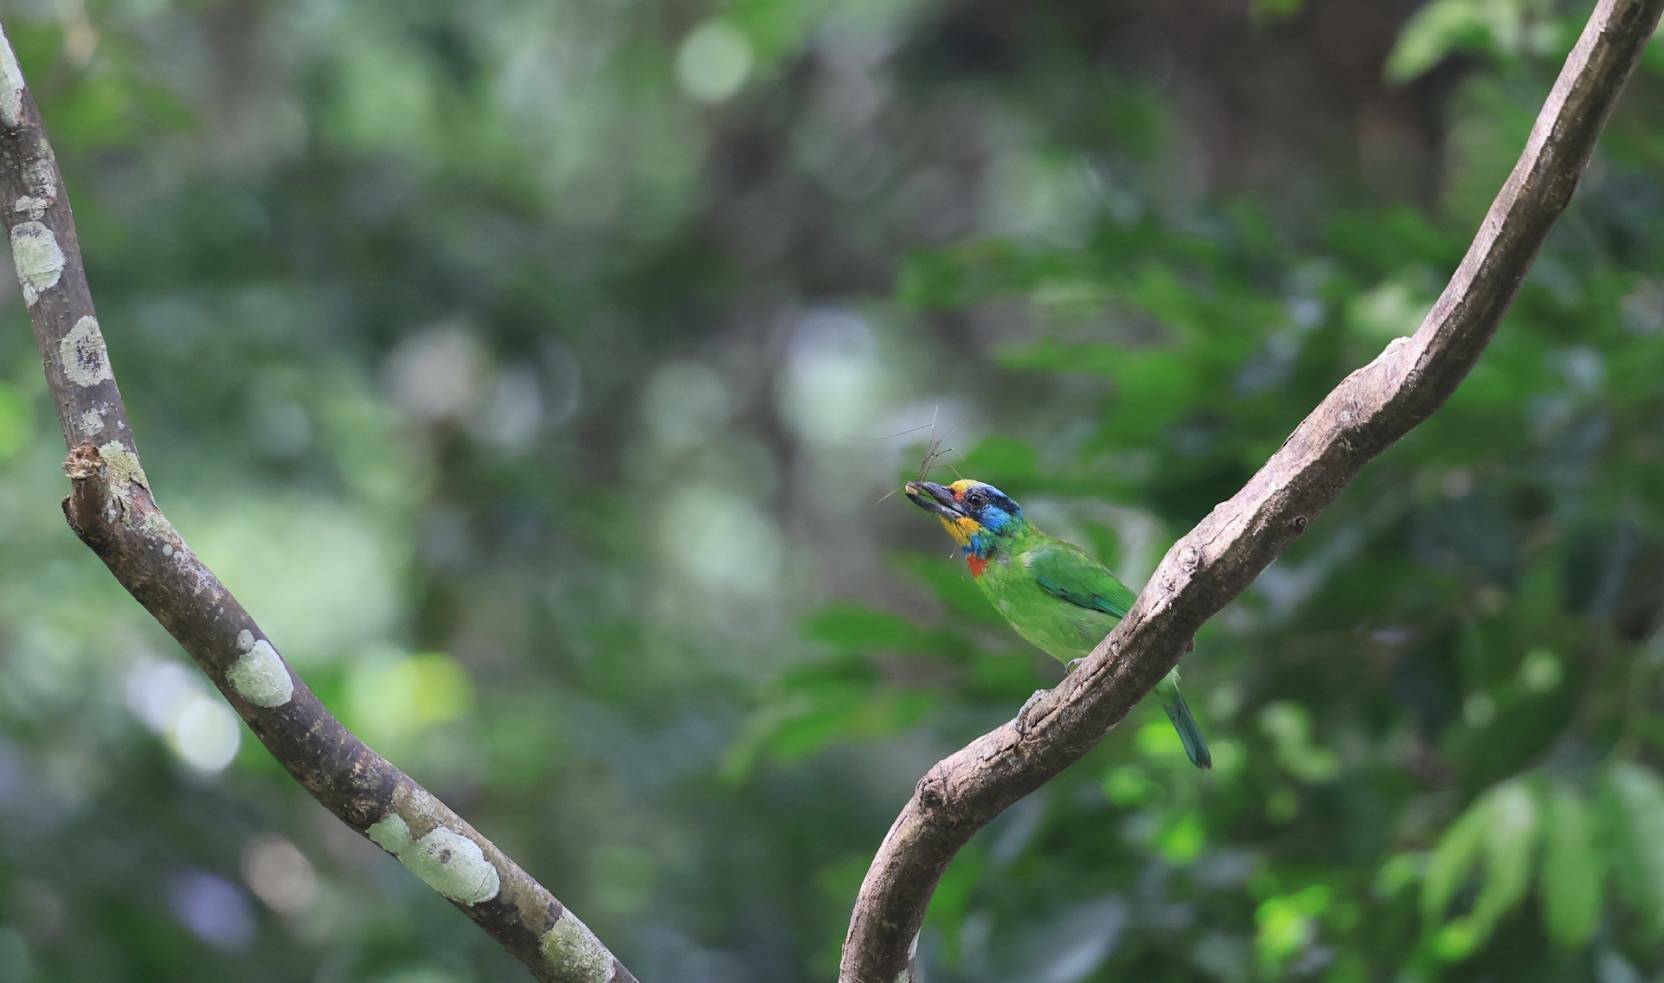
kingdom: Animalia
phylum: Chordata
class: Aves
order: Piciformes
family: Megalaimidae
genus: Psilopogon
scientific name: Psilopogon nuchalis
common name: Taiwan barbet
